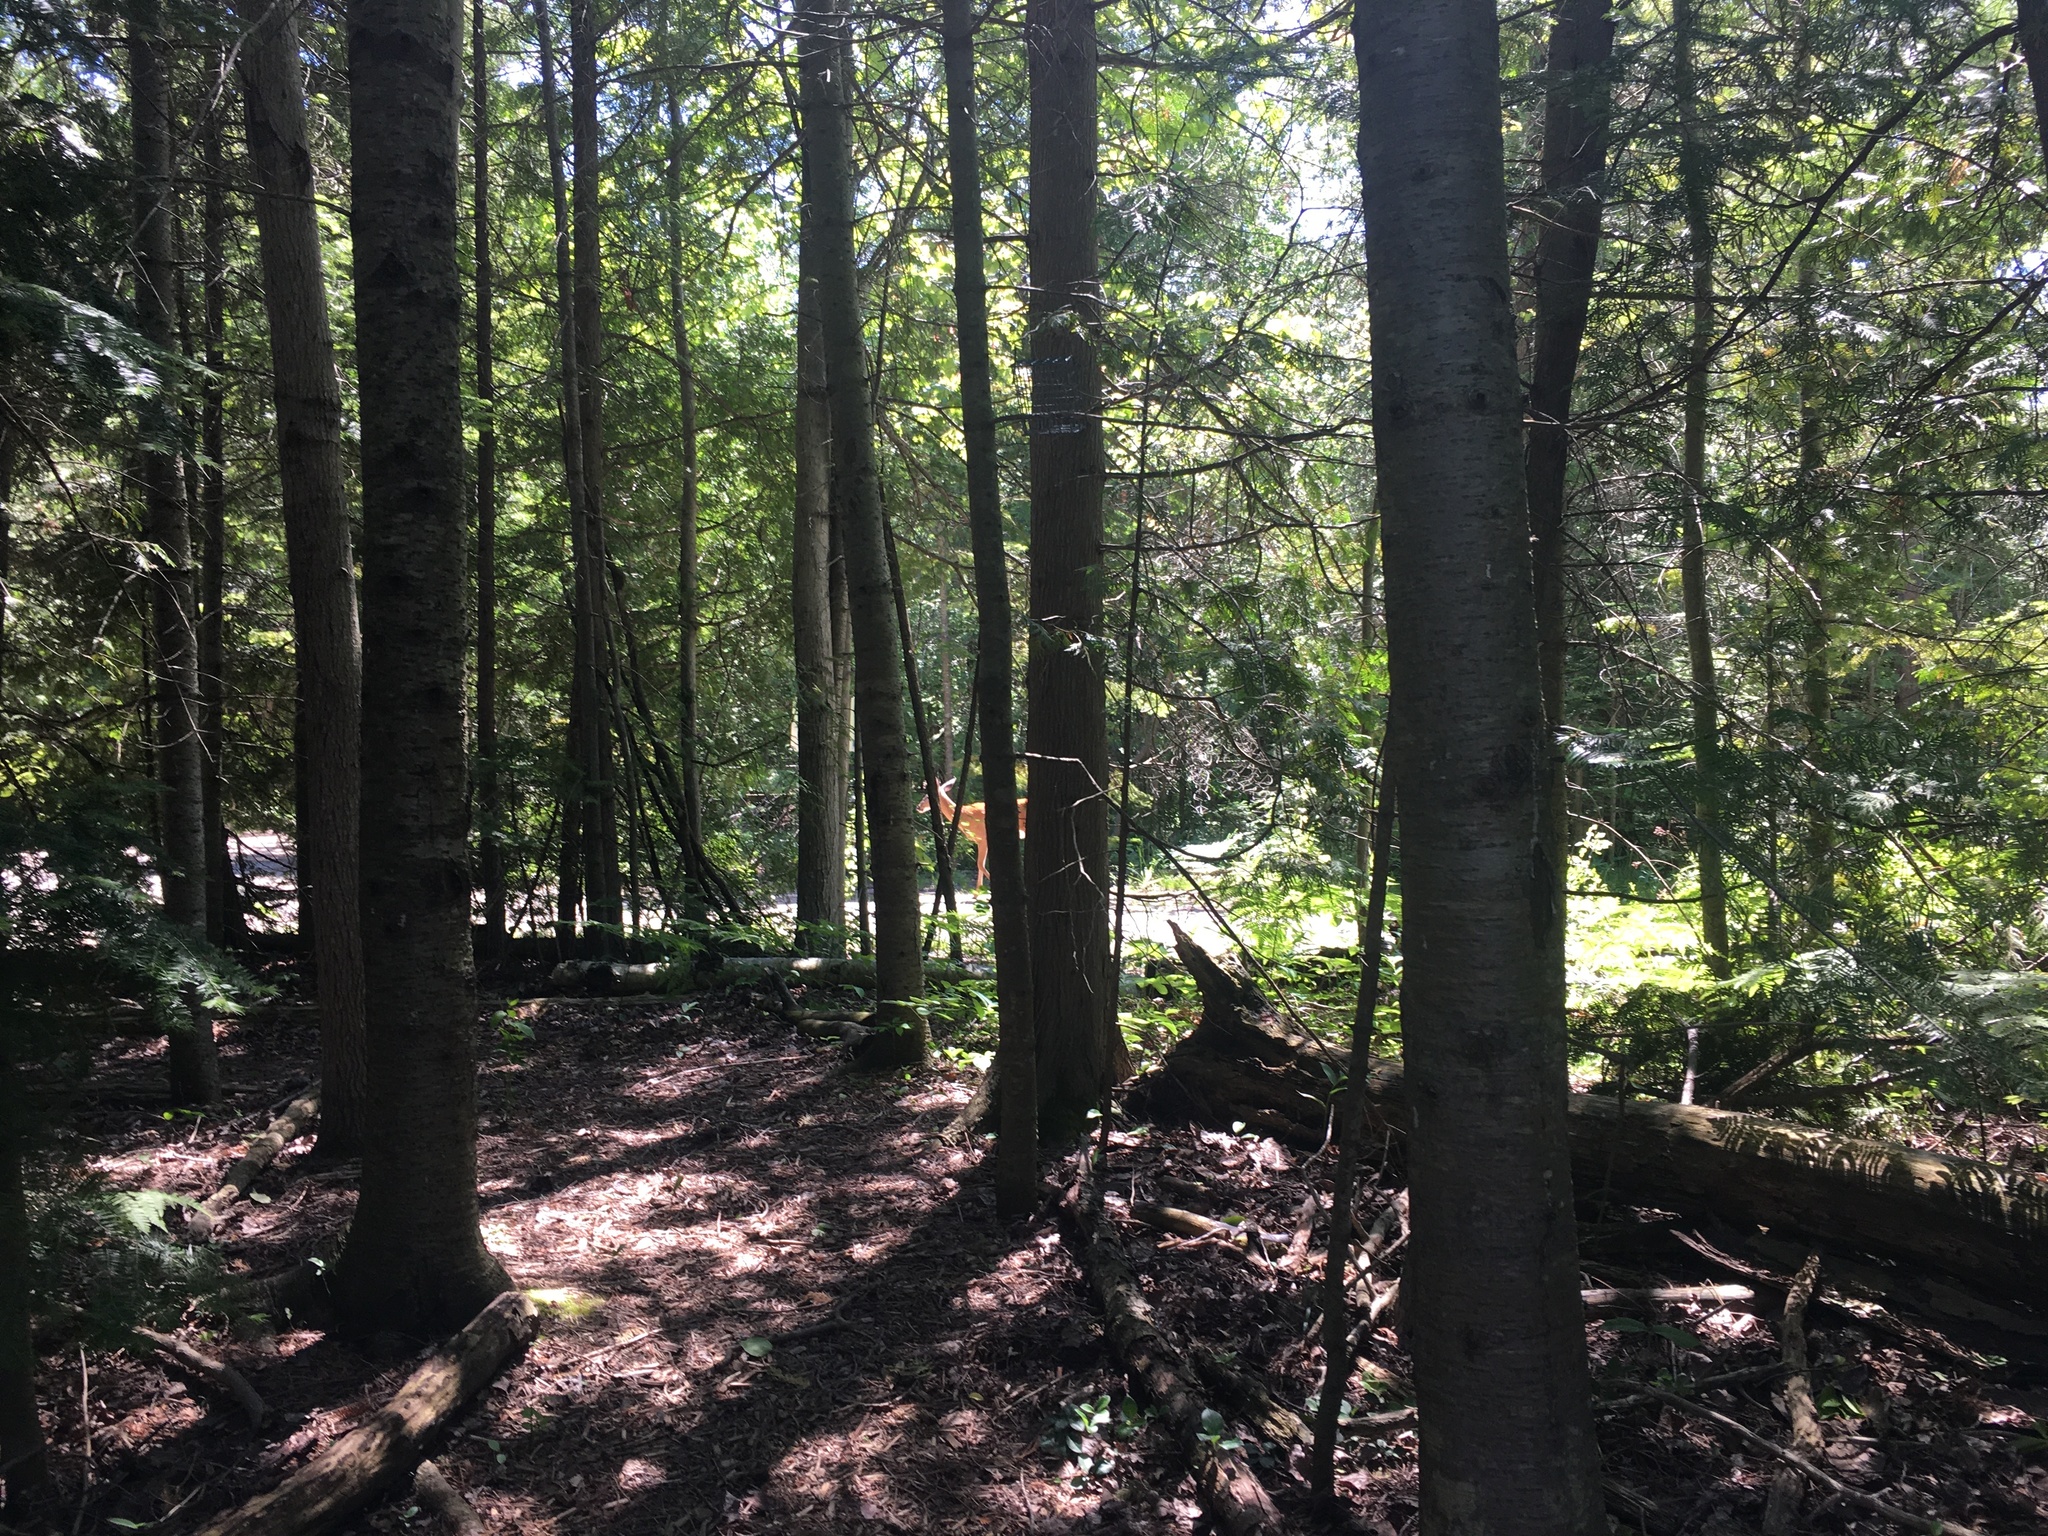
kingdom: Animalia
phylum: Chordata
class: Mammalia
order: Artiodactyla
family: Cervidae
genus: Odocoileus
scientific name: Odocoileus virginianus
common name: White-tailed deer
